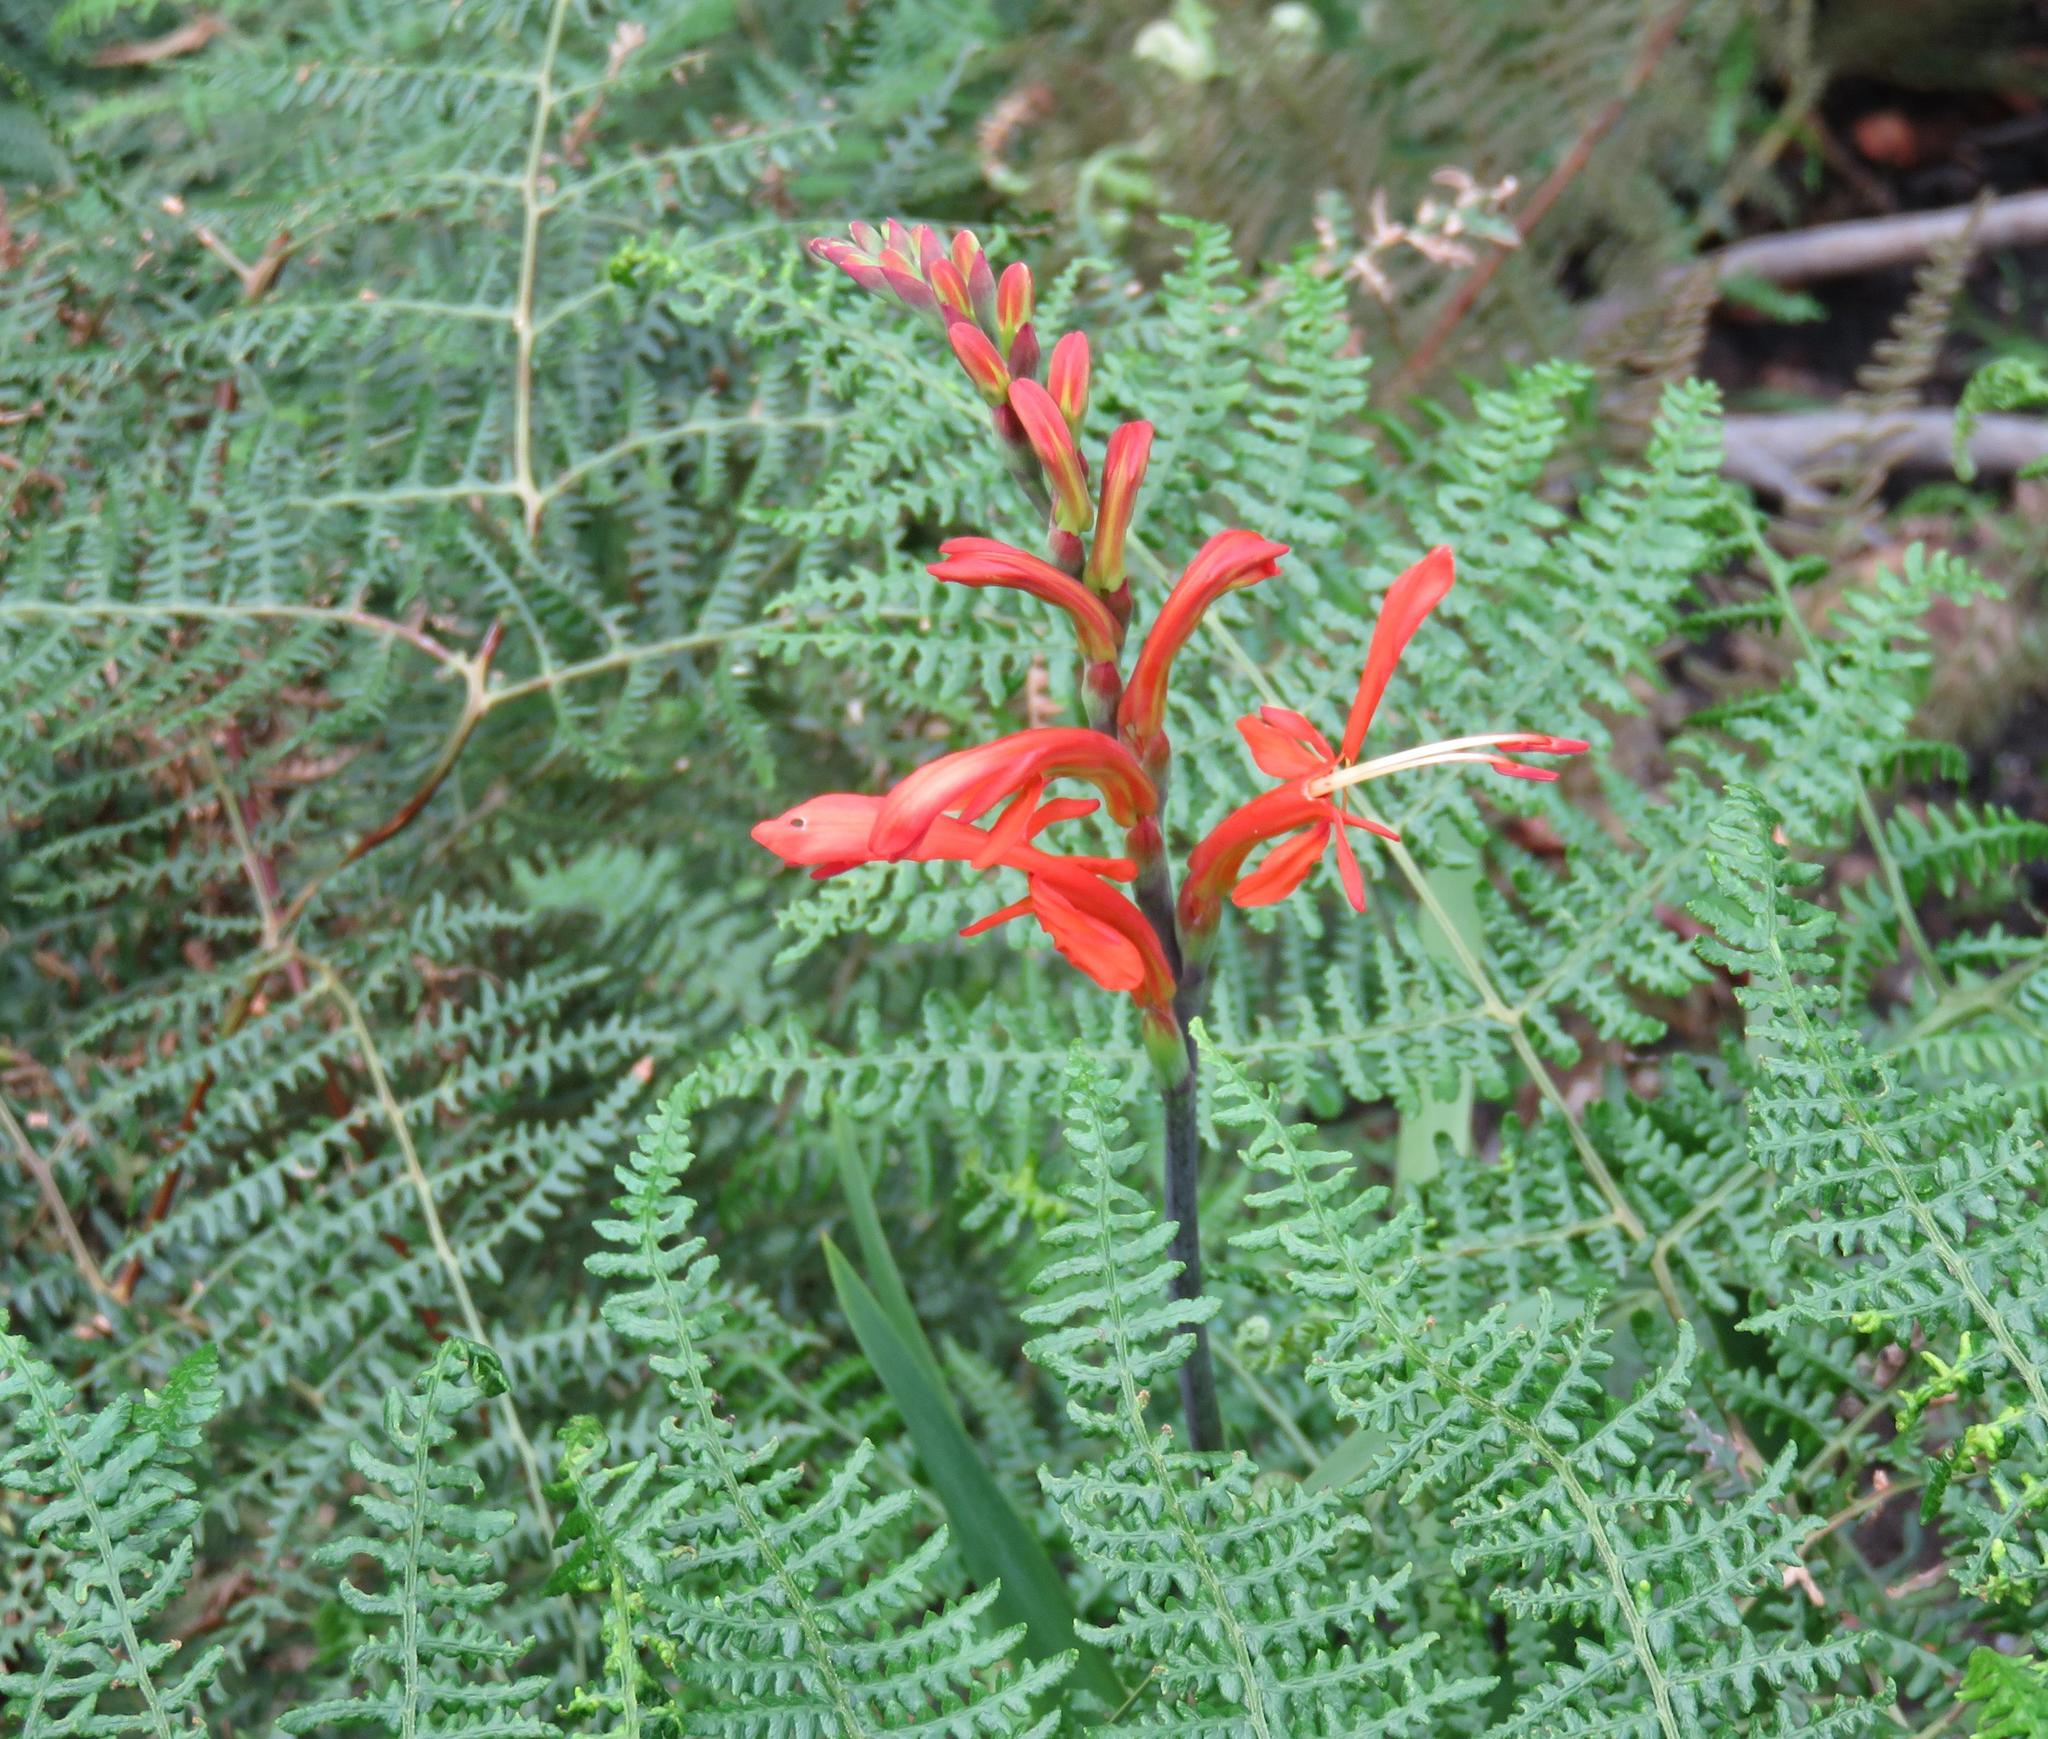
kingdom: Plantae
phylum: Tracheophyta
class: Liliopsida
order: Asparagales
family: Iridaceae
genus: Chasmanthe
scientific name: Chasmanthe aethiopica
